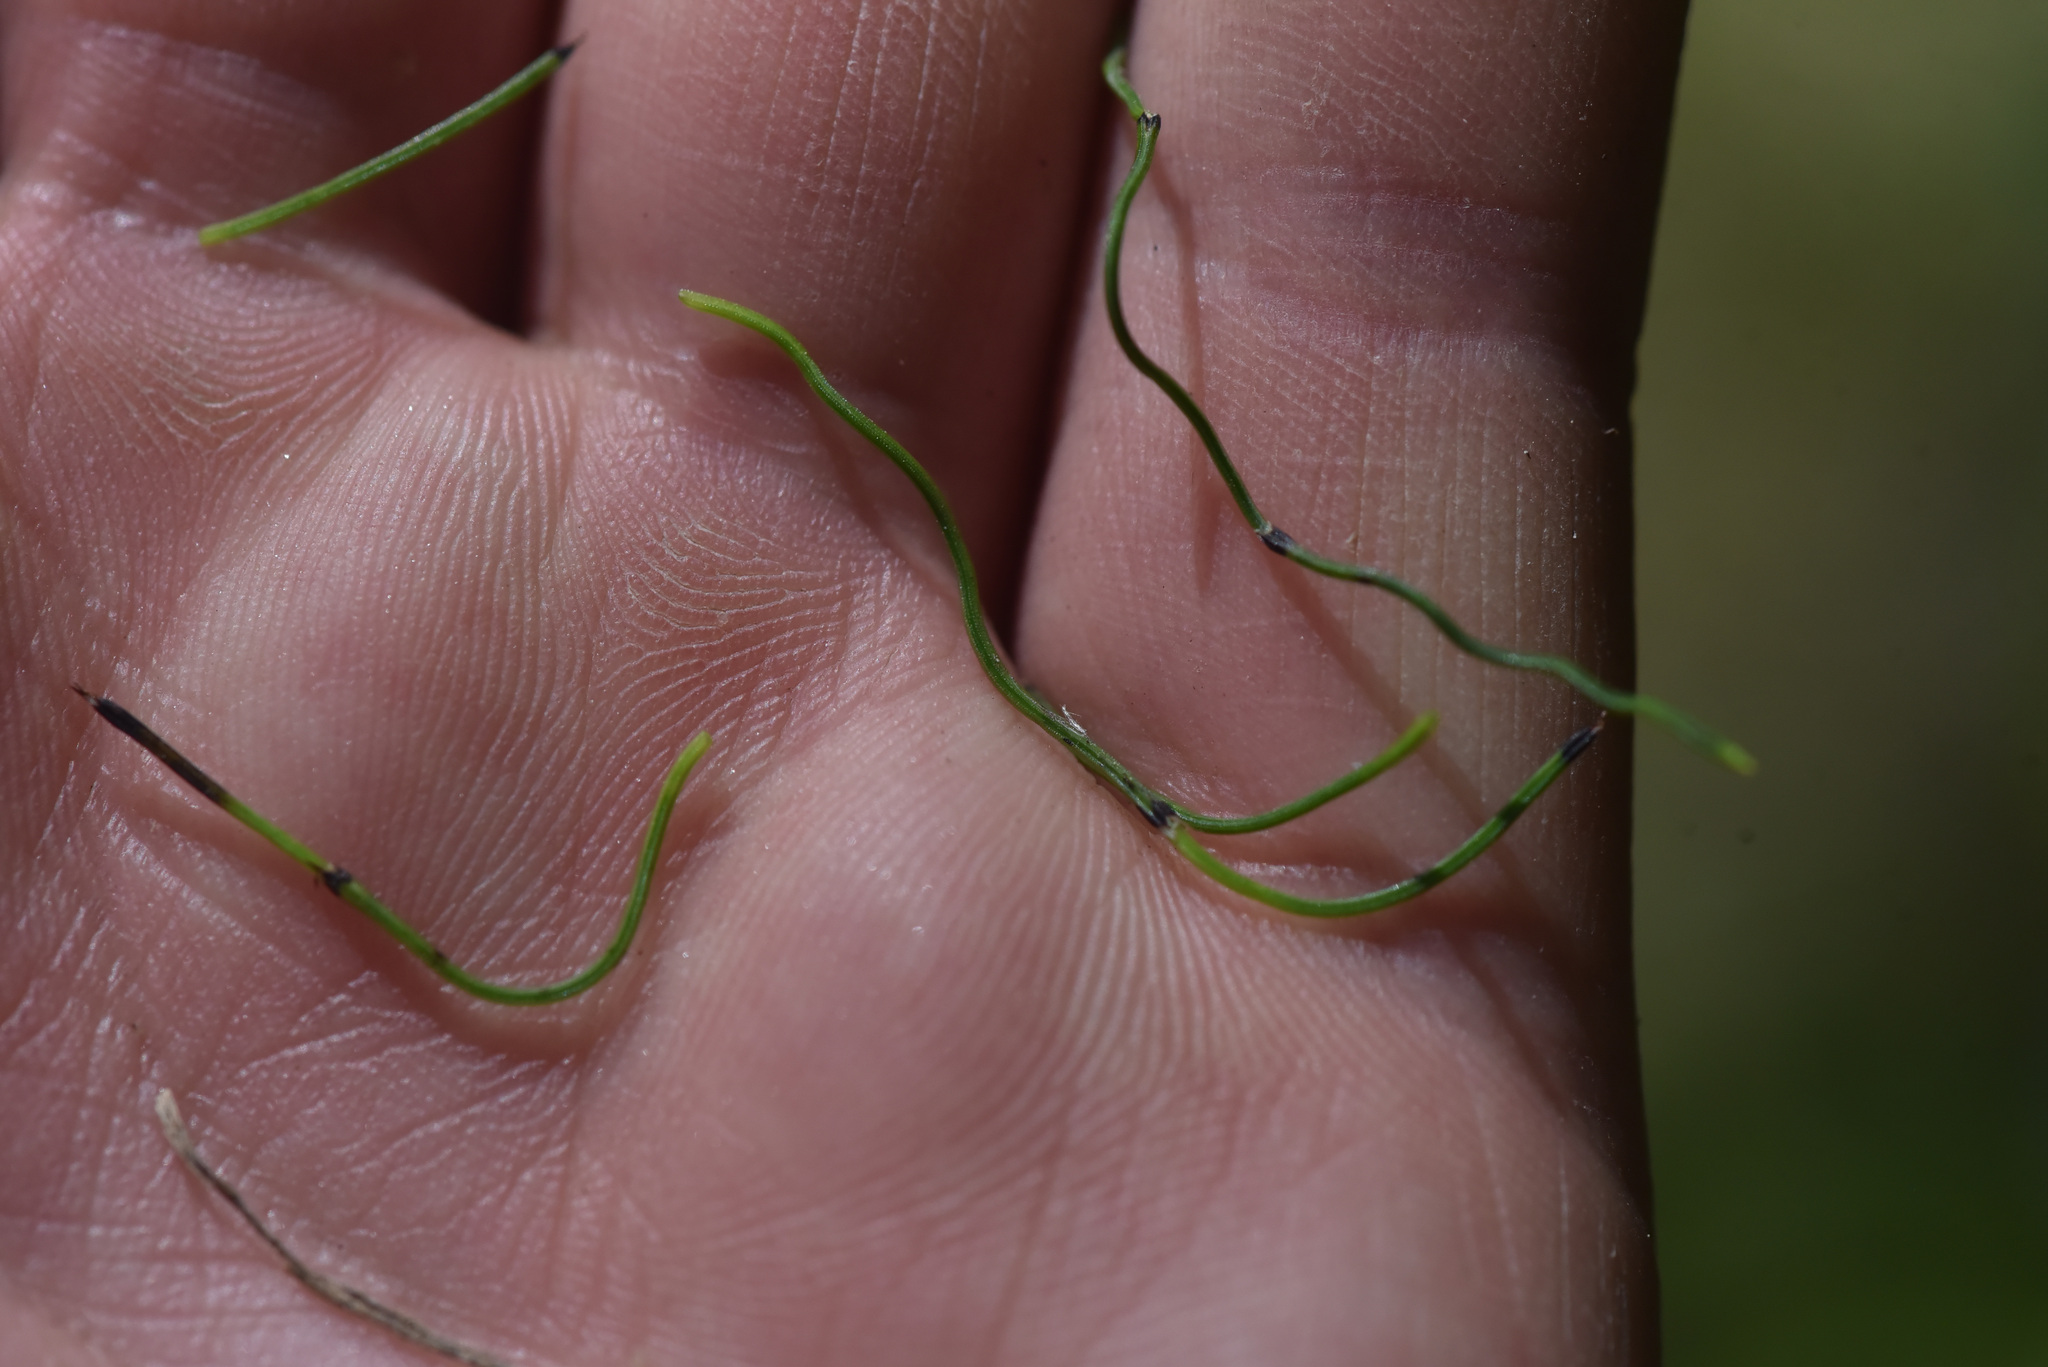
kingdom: Plantae
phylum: Tracheophyta
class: Polypodiopsida
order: Equisetales
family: Equisetaceae
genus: Equisetum
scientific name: Equisetum scirpoides
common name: Delicate horsetail
